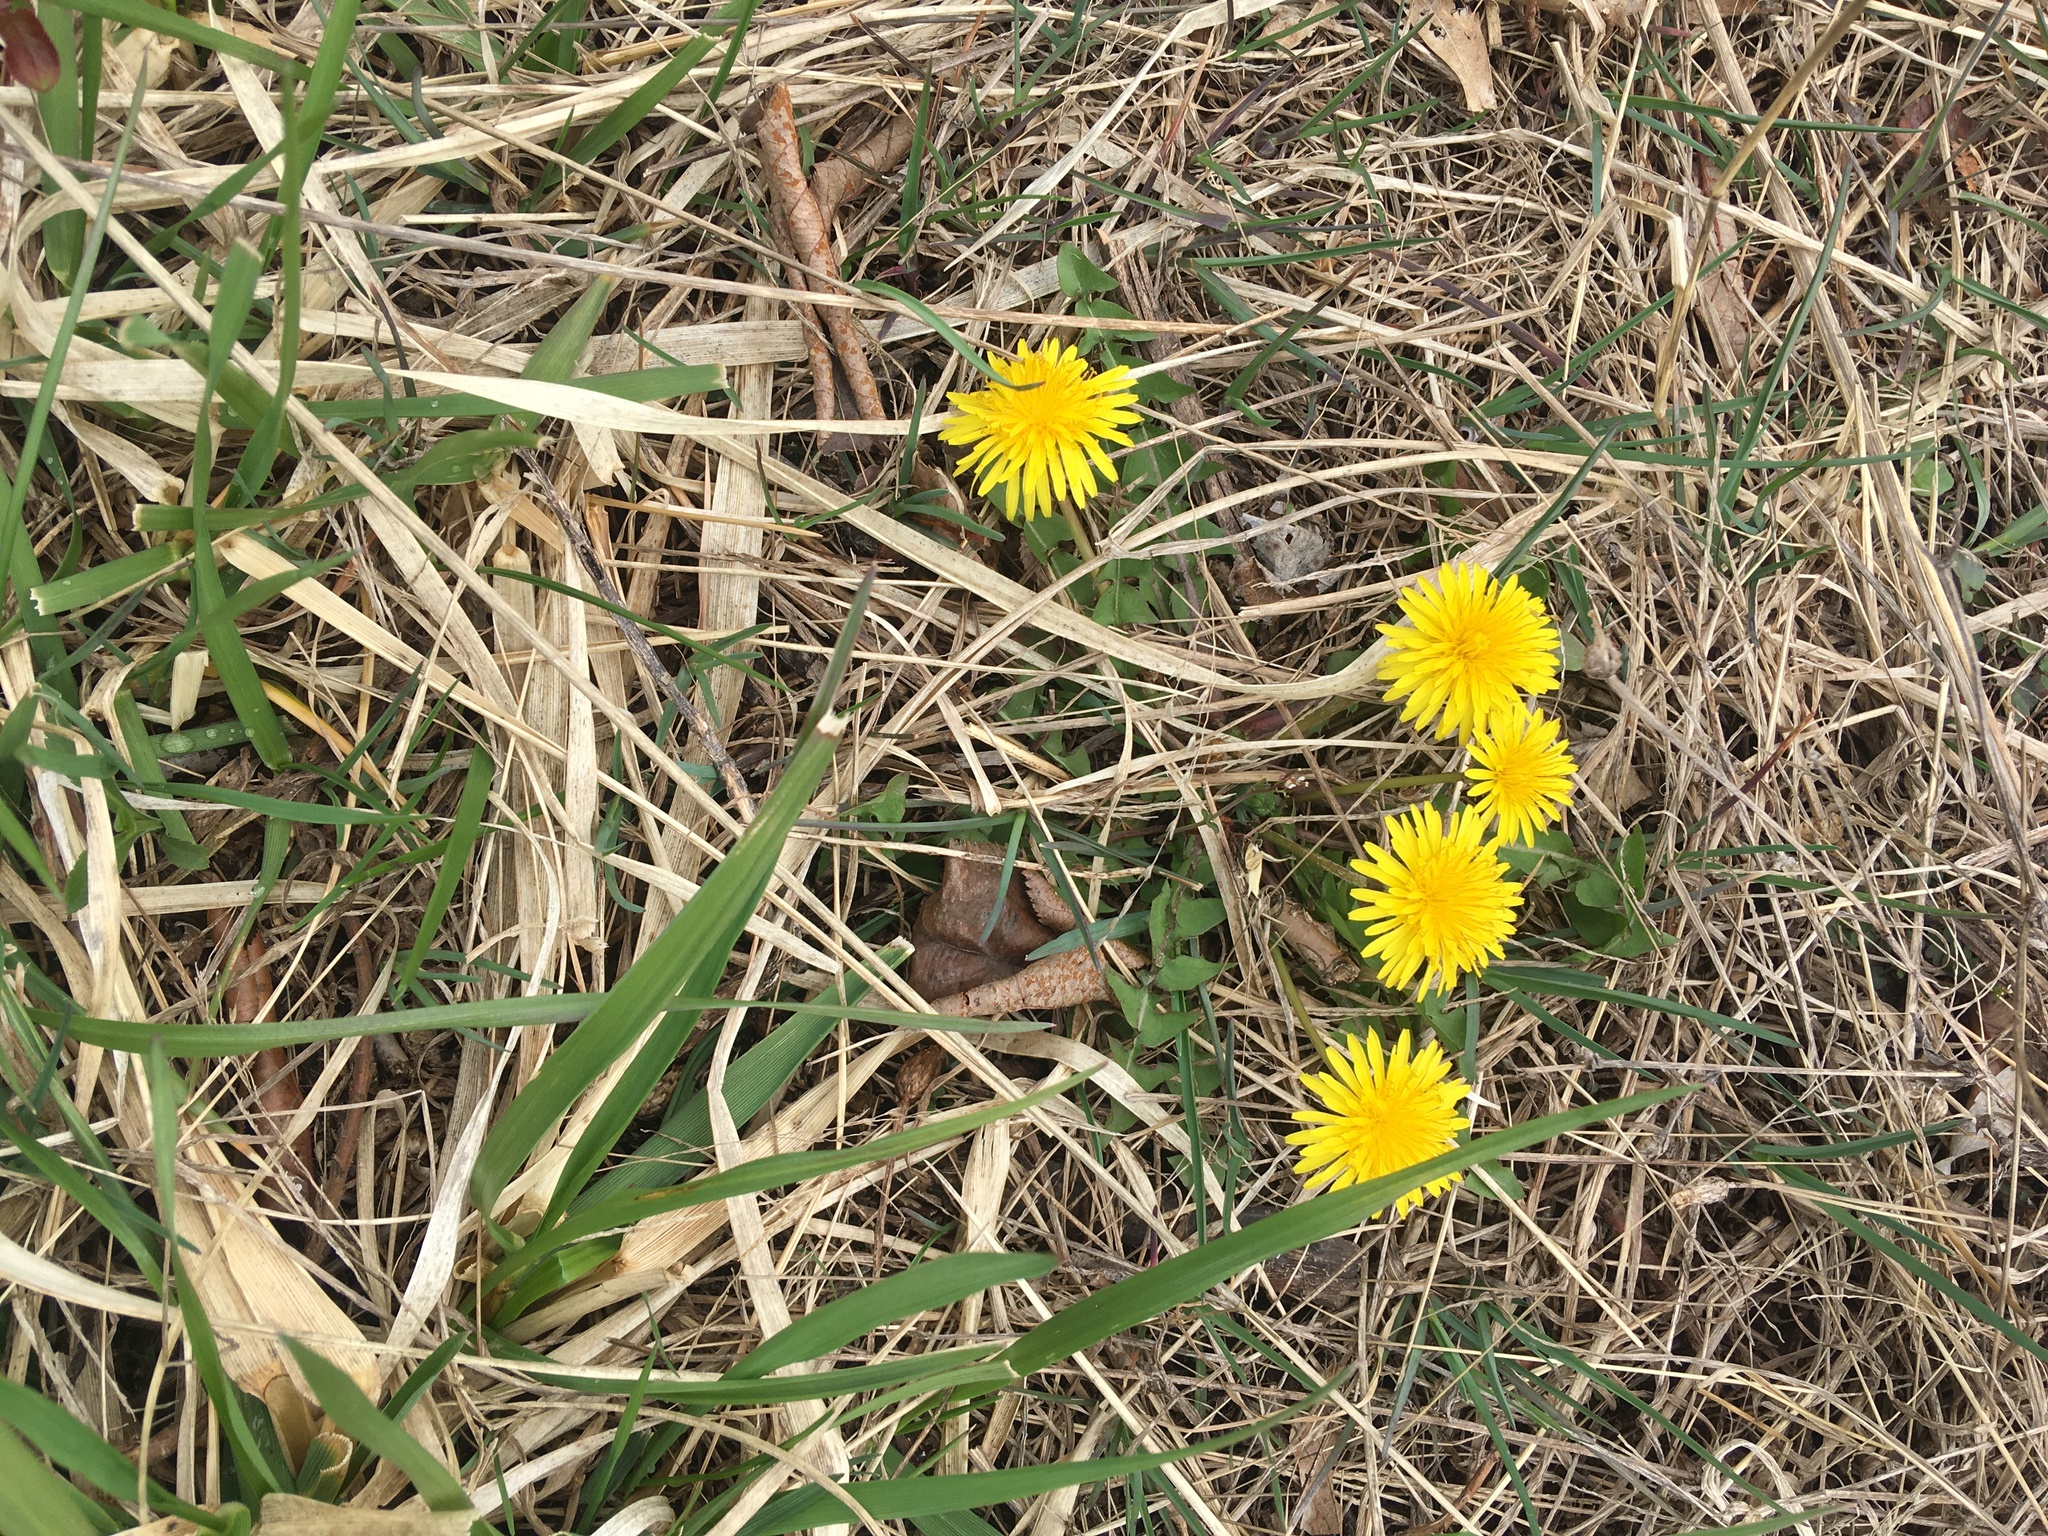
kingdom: Plantae
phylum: Tracheophyta
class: Magnoliopsida
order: Asterales
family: Asteraceae
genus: Taraxacum
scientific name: Taraxacum officinale
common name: Common dandelion
